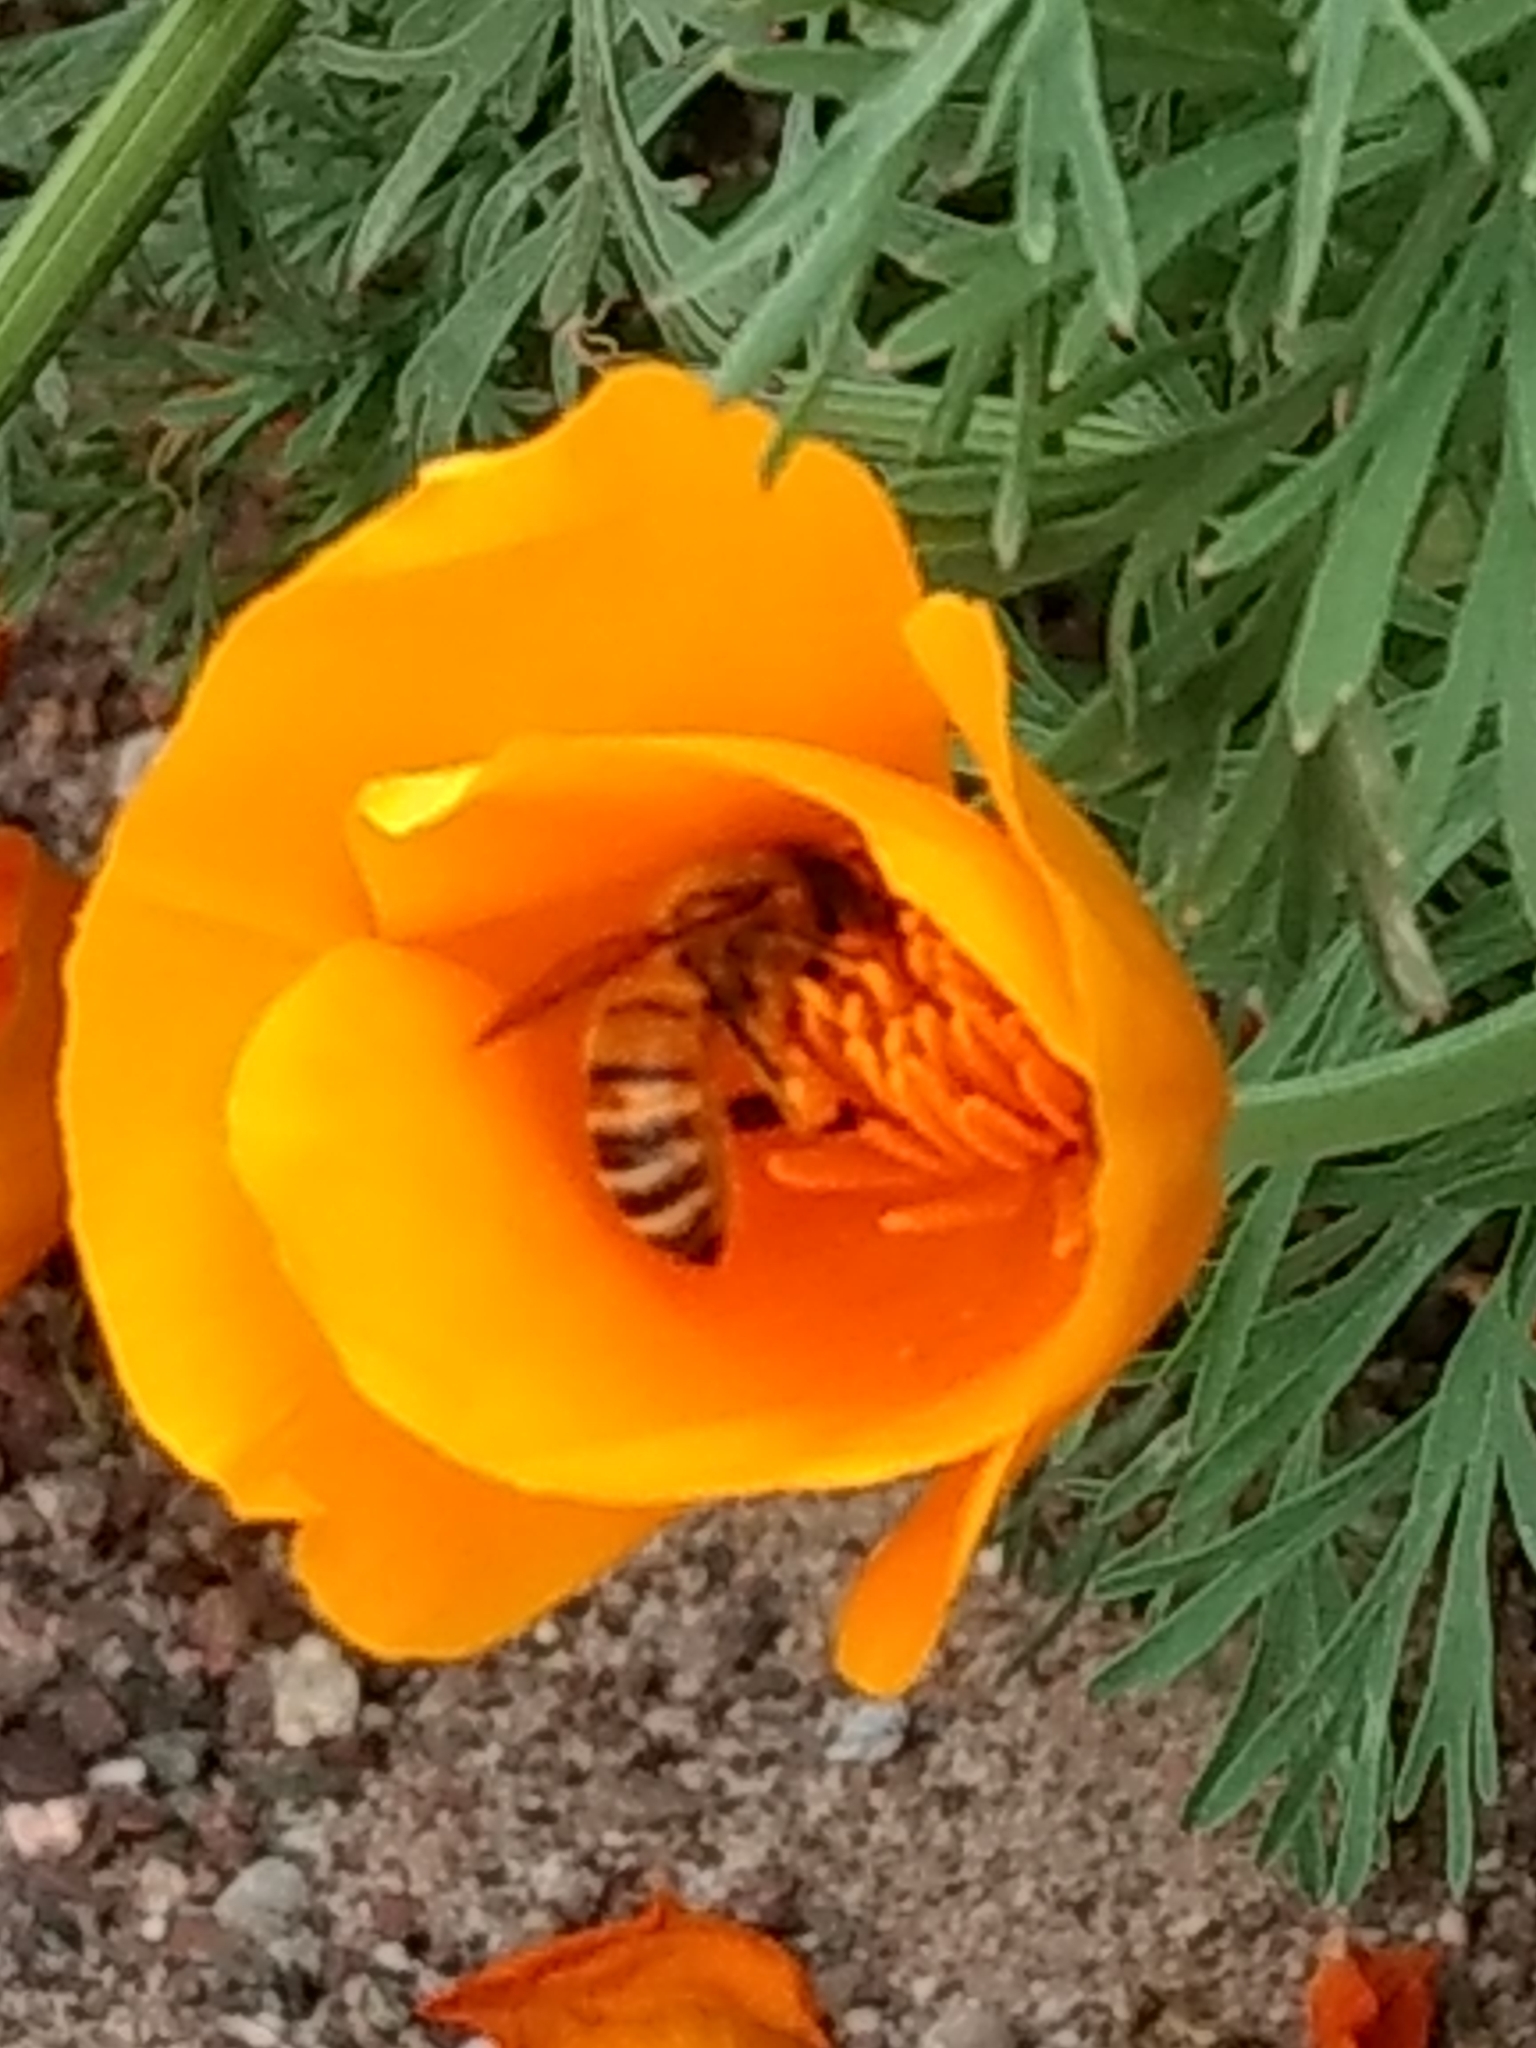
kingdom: Animalia
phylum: Arthropoda
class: Insecta
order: Hymenoptera
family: Apidae
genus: Apis
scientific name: Apis mellifera
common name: Honey bee
